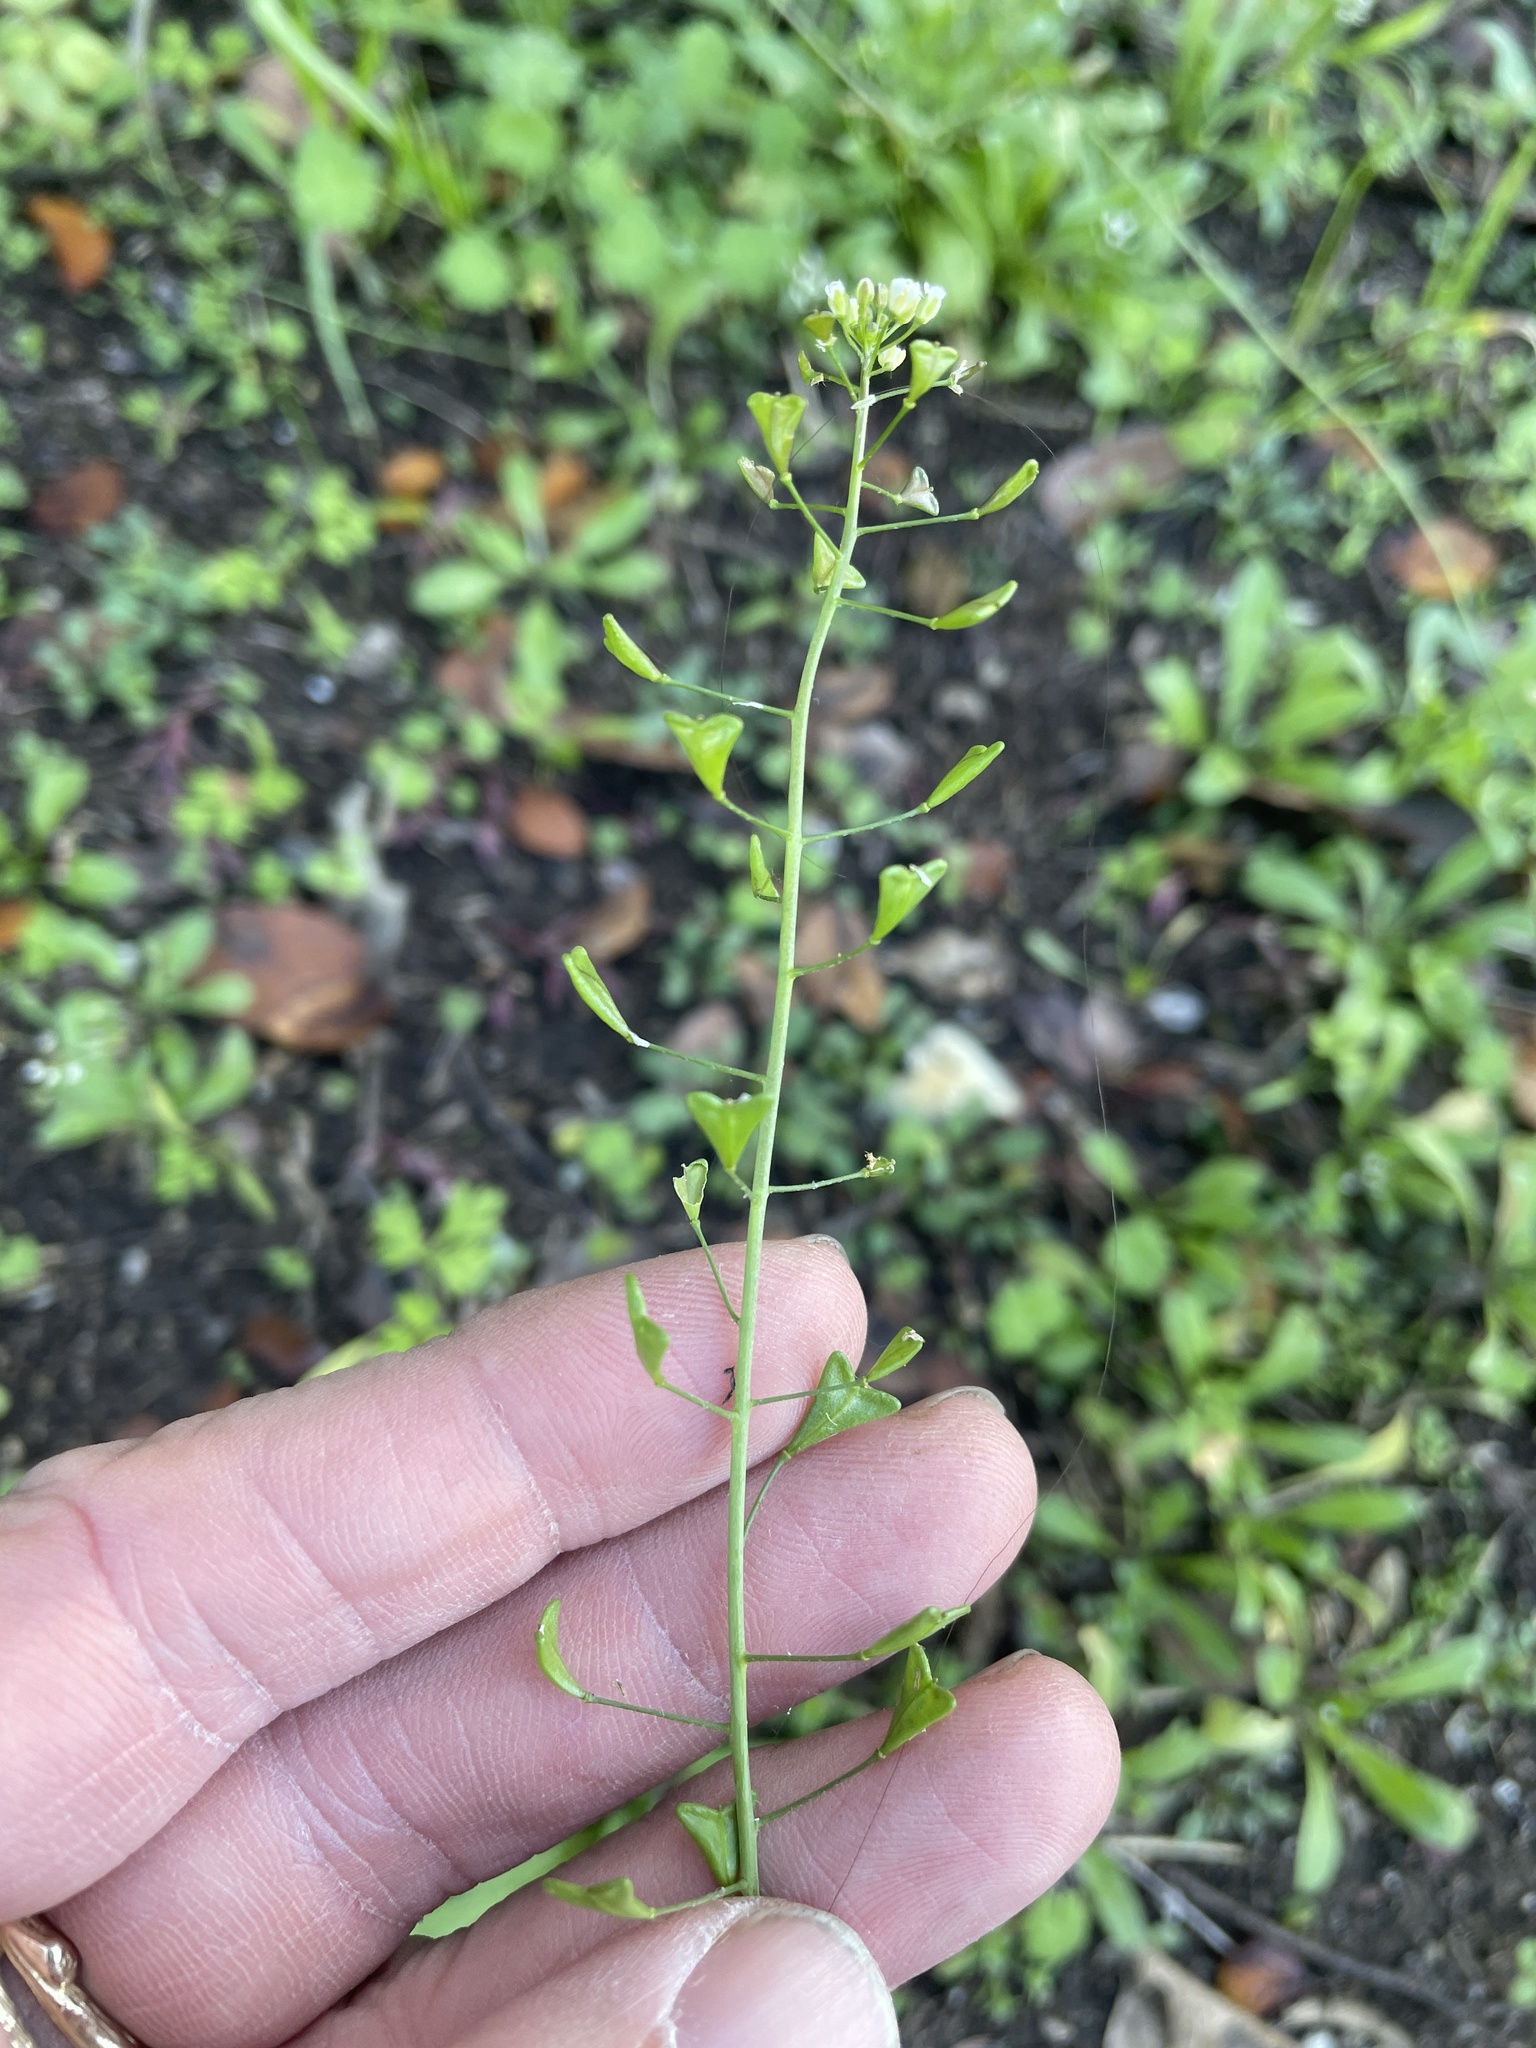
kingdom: Plantae
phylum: Tracheophyta
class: Magnoliopsida
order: Brassicales
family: Brassicaceae
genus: Capsella
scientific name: Capsella bursa-pastoris
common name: Shepherd's purse
